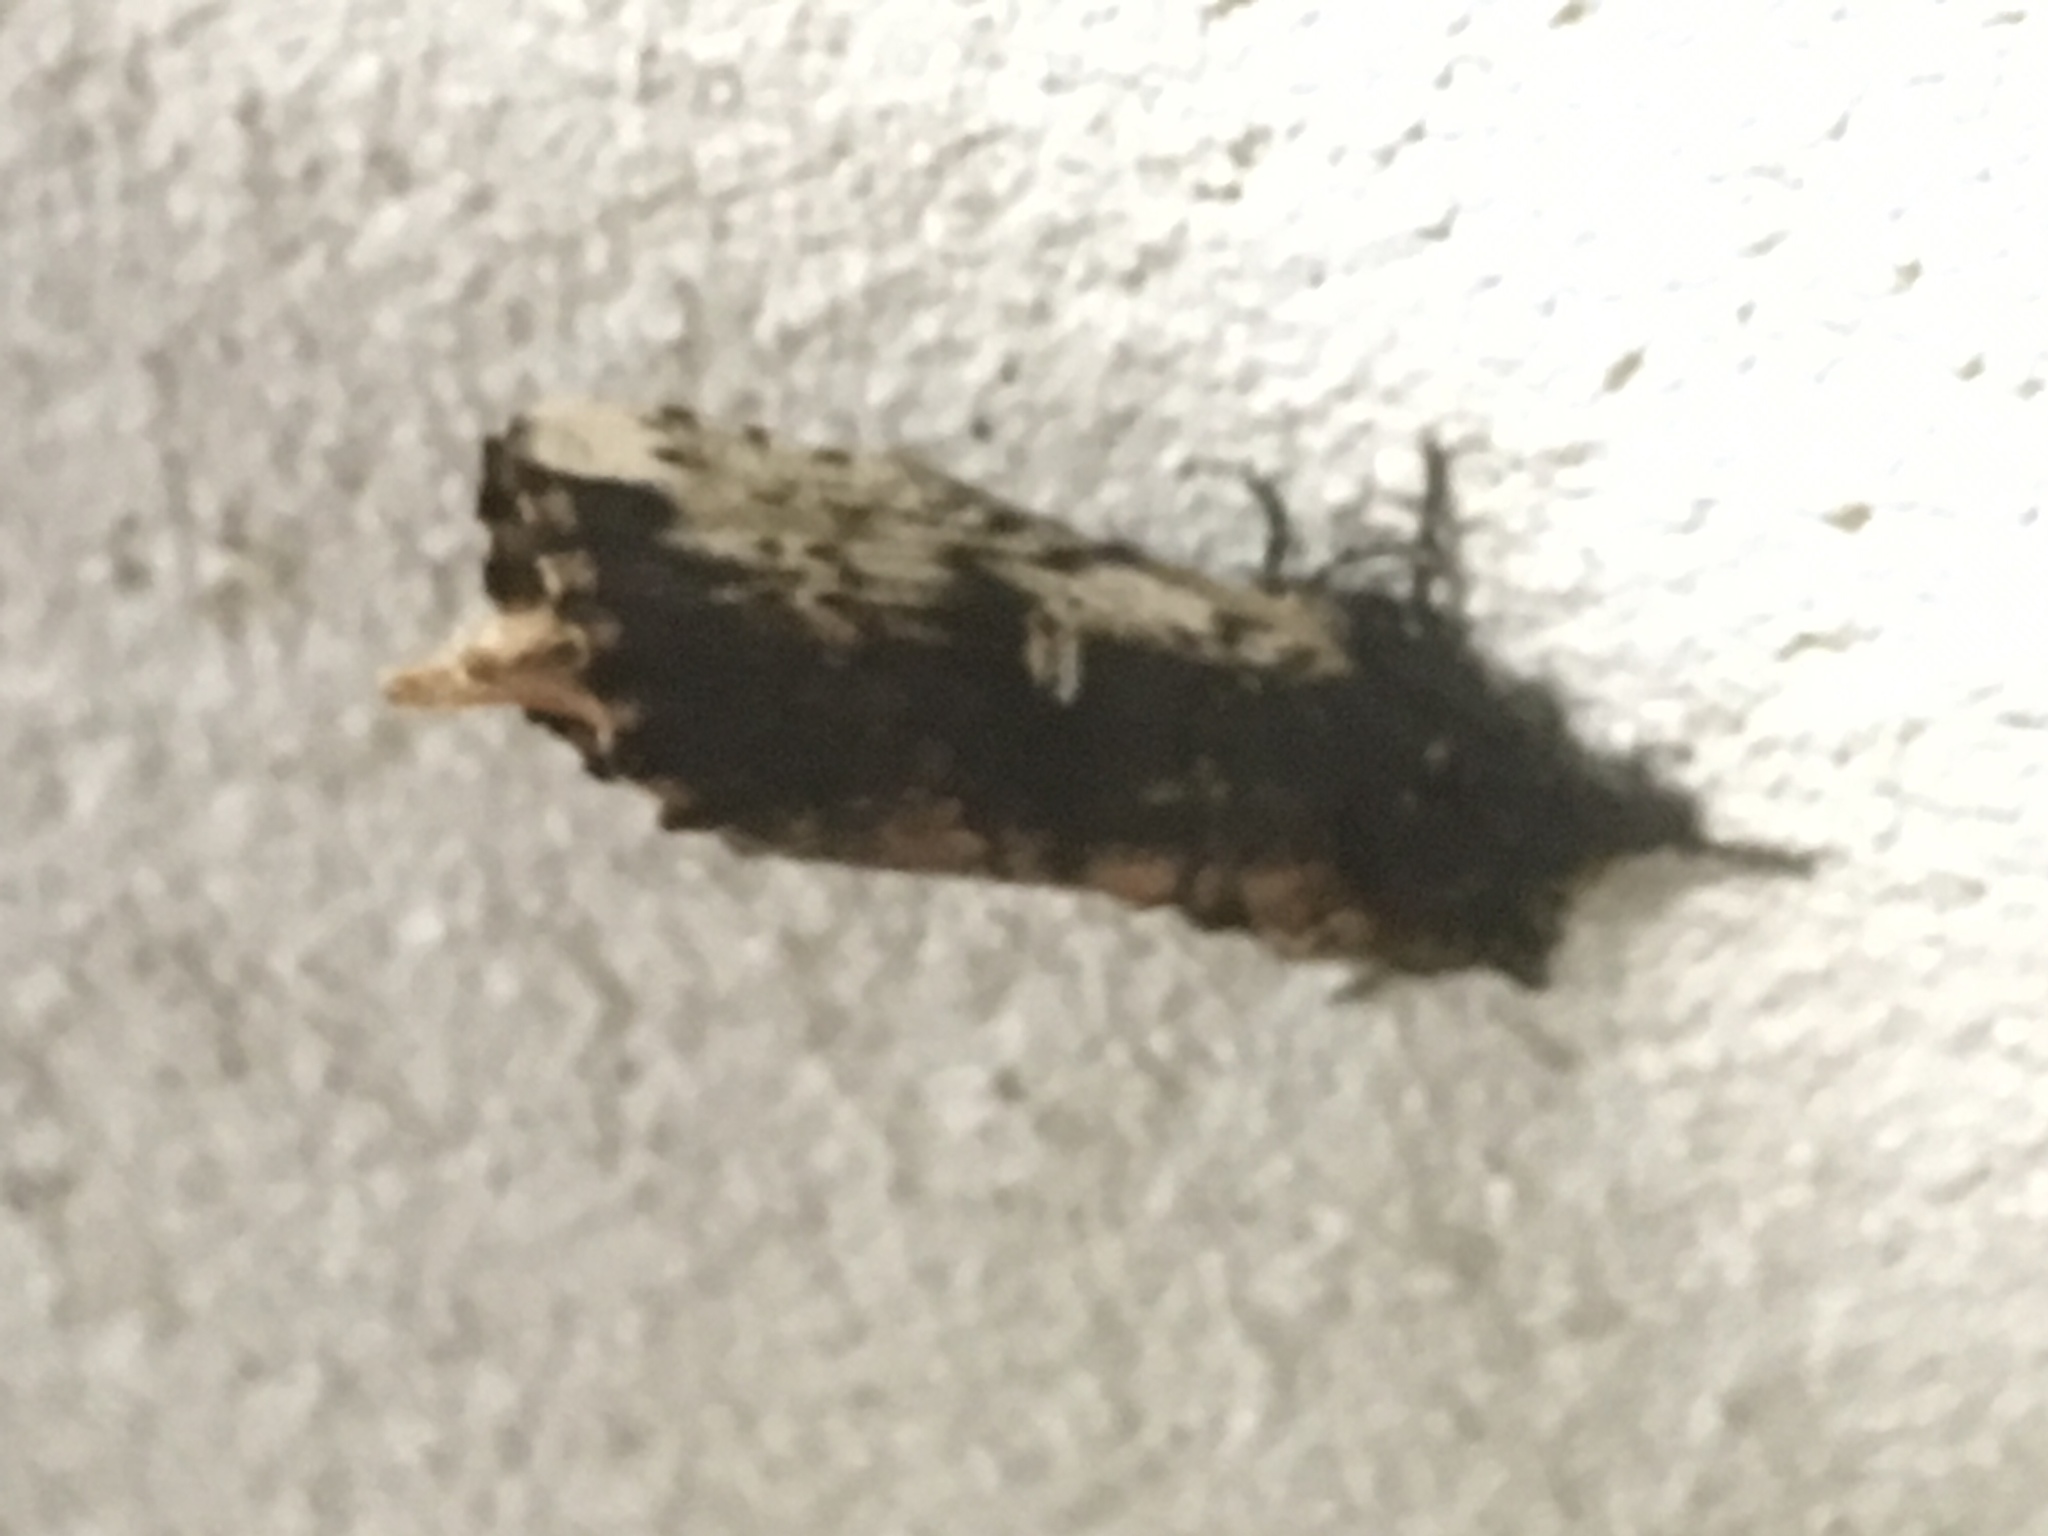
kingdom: Animalia
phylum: Arthropoda
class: Insecta
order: Lepidoptera
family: Notodontidae
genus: Schizura
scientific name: Schizura ipomaeae
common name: Morning-glory prominent
